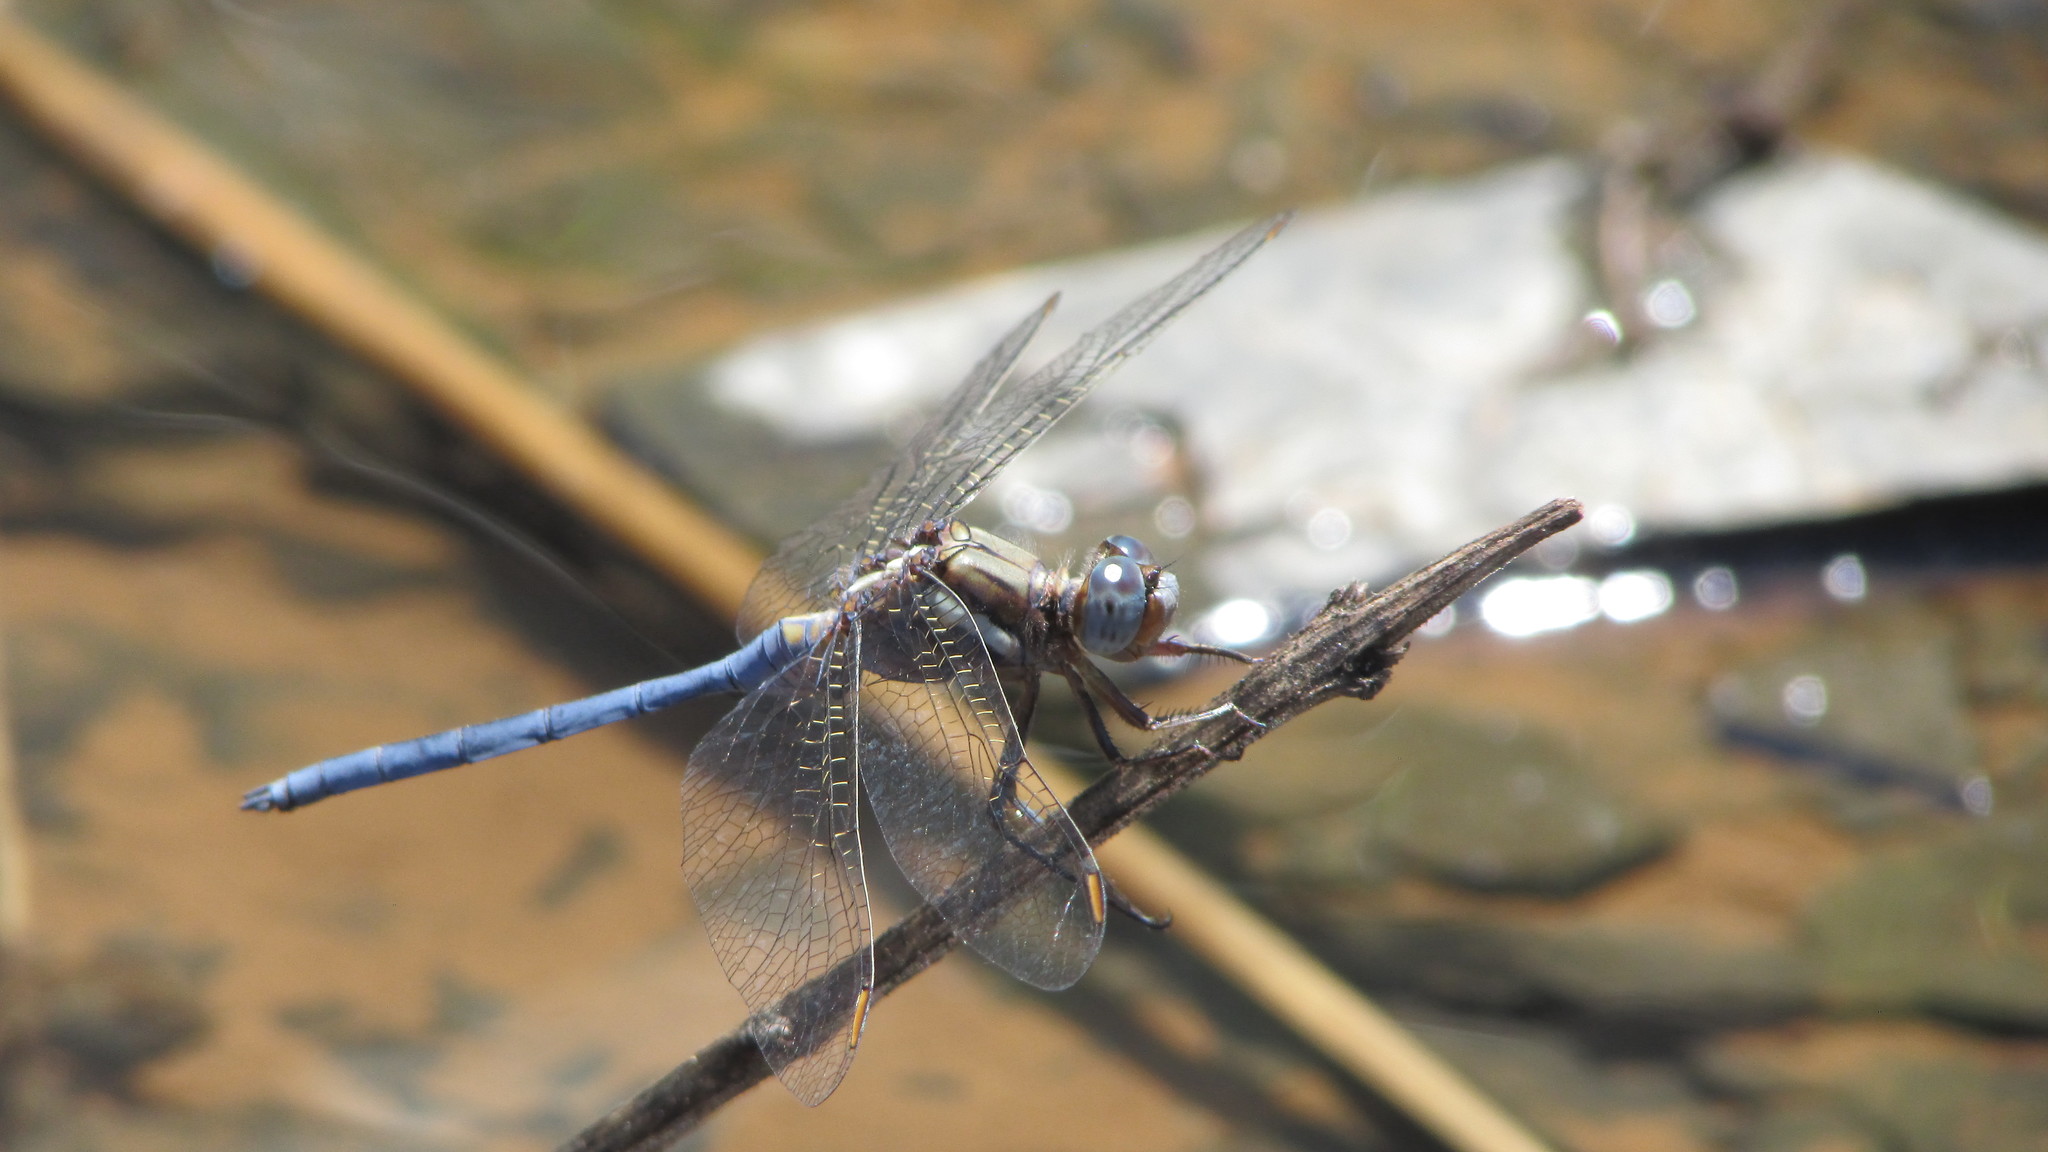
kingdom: Animalia
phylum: Arthropoda
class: Insecta
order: Odonata
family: Libellulidae
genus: Orthetrum
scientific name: Orthetrum chrysostigma
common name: Epaulet skimmer
